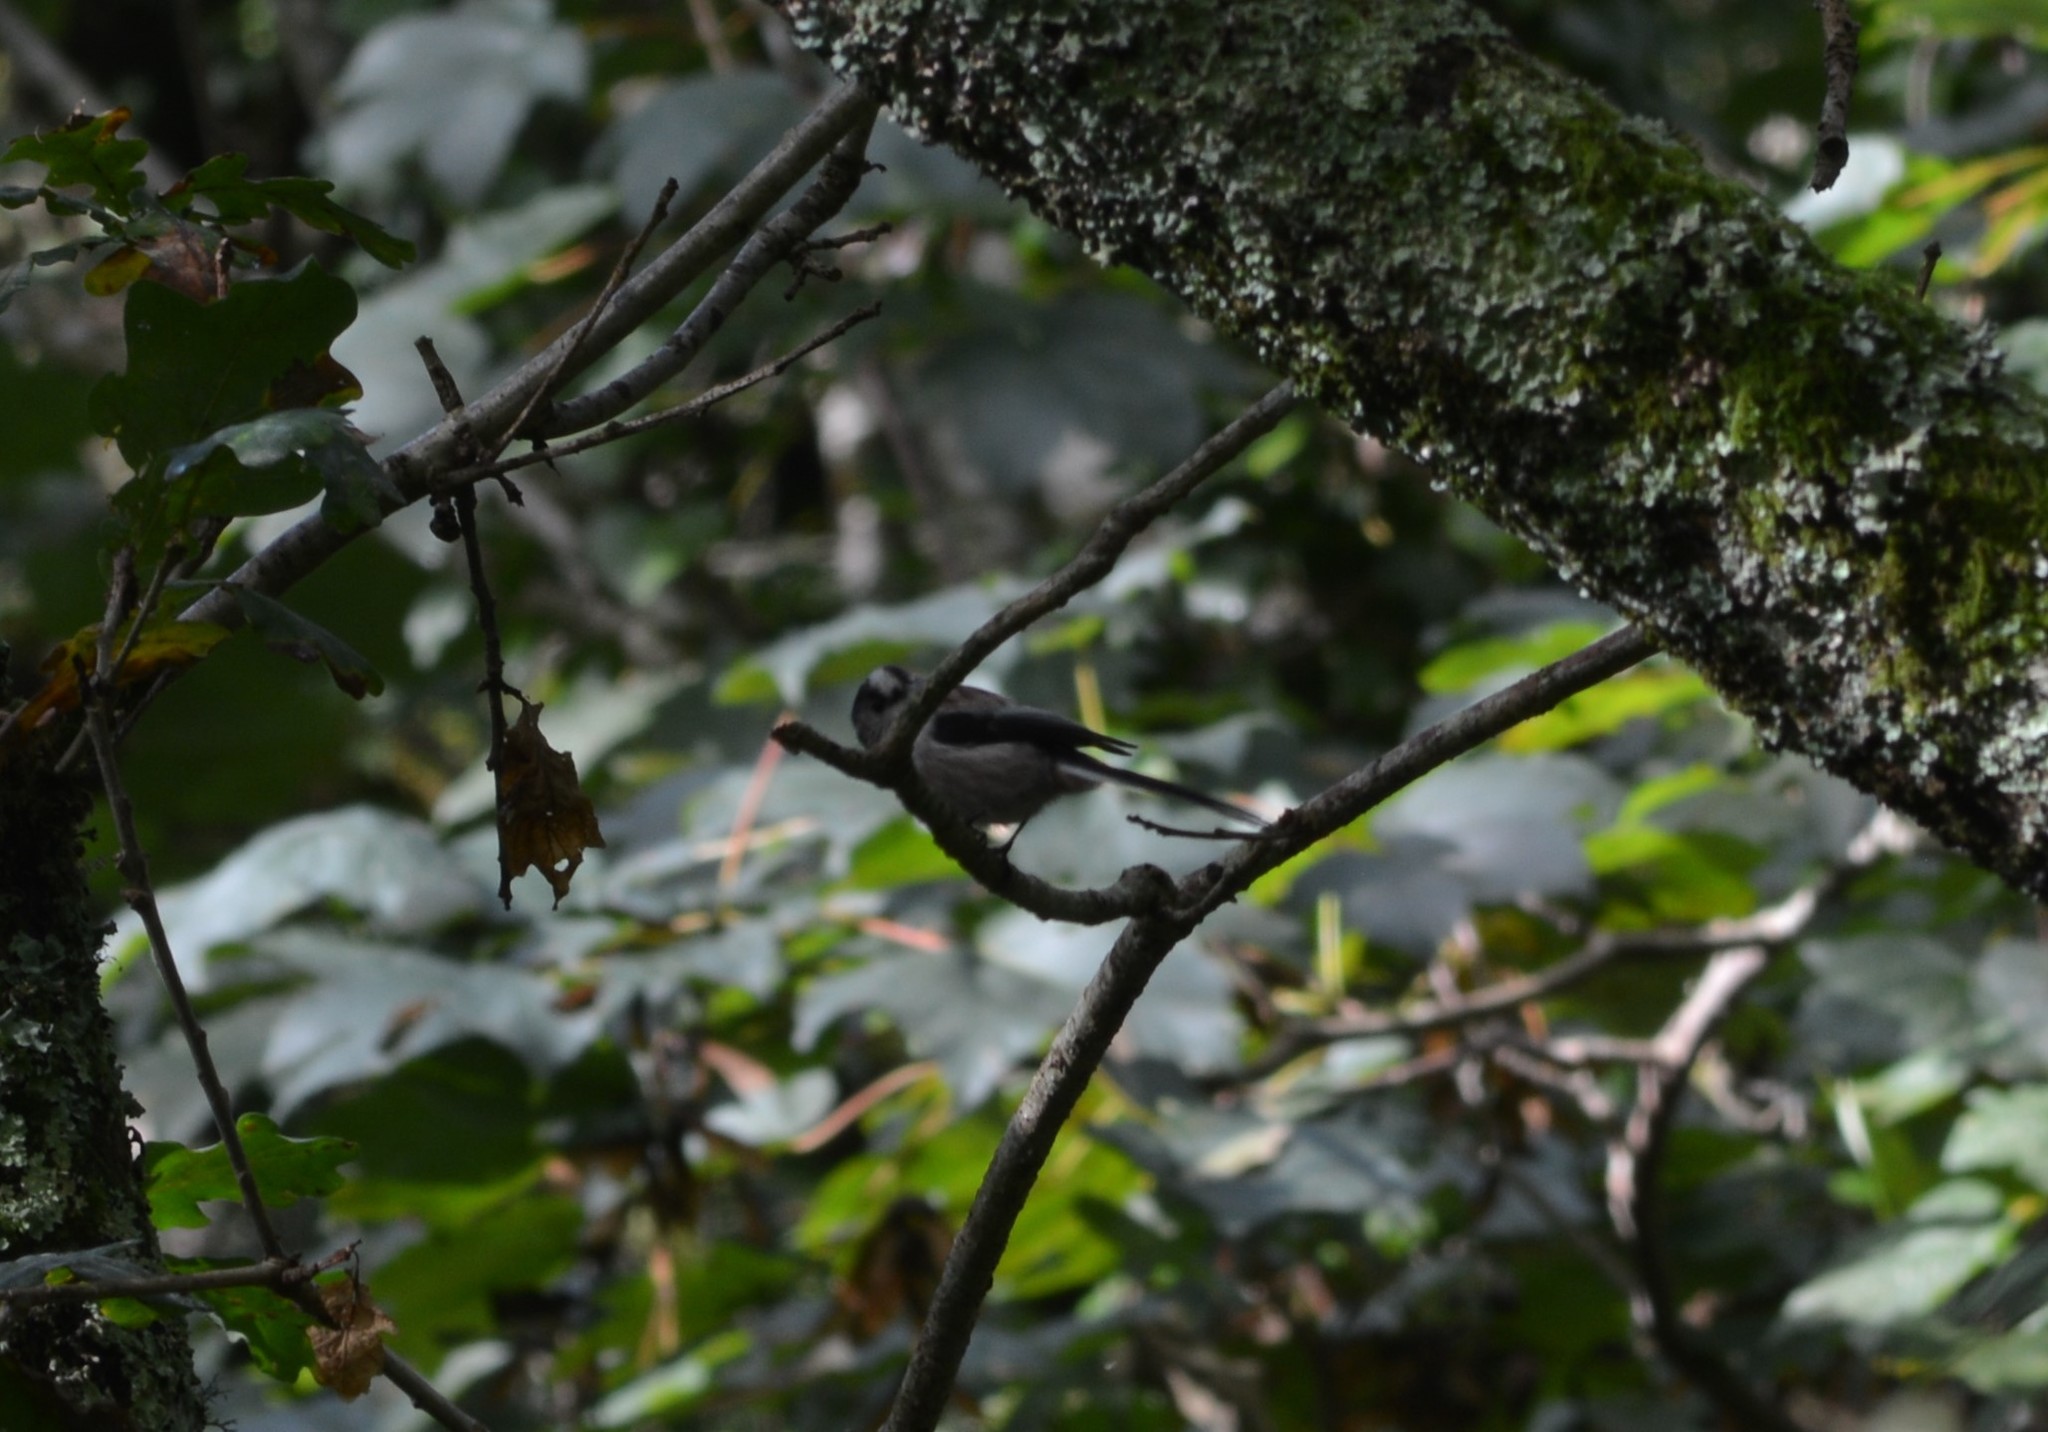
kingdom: Animalia
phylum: Chordata
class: Aves
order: Passeriformes
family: Aegithalidae
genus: Aegithalos
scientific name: Aegithalos caudatus
